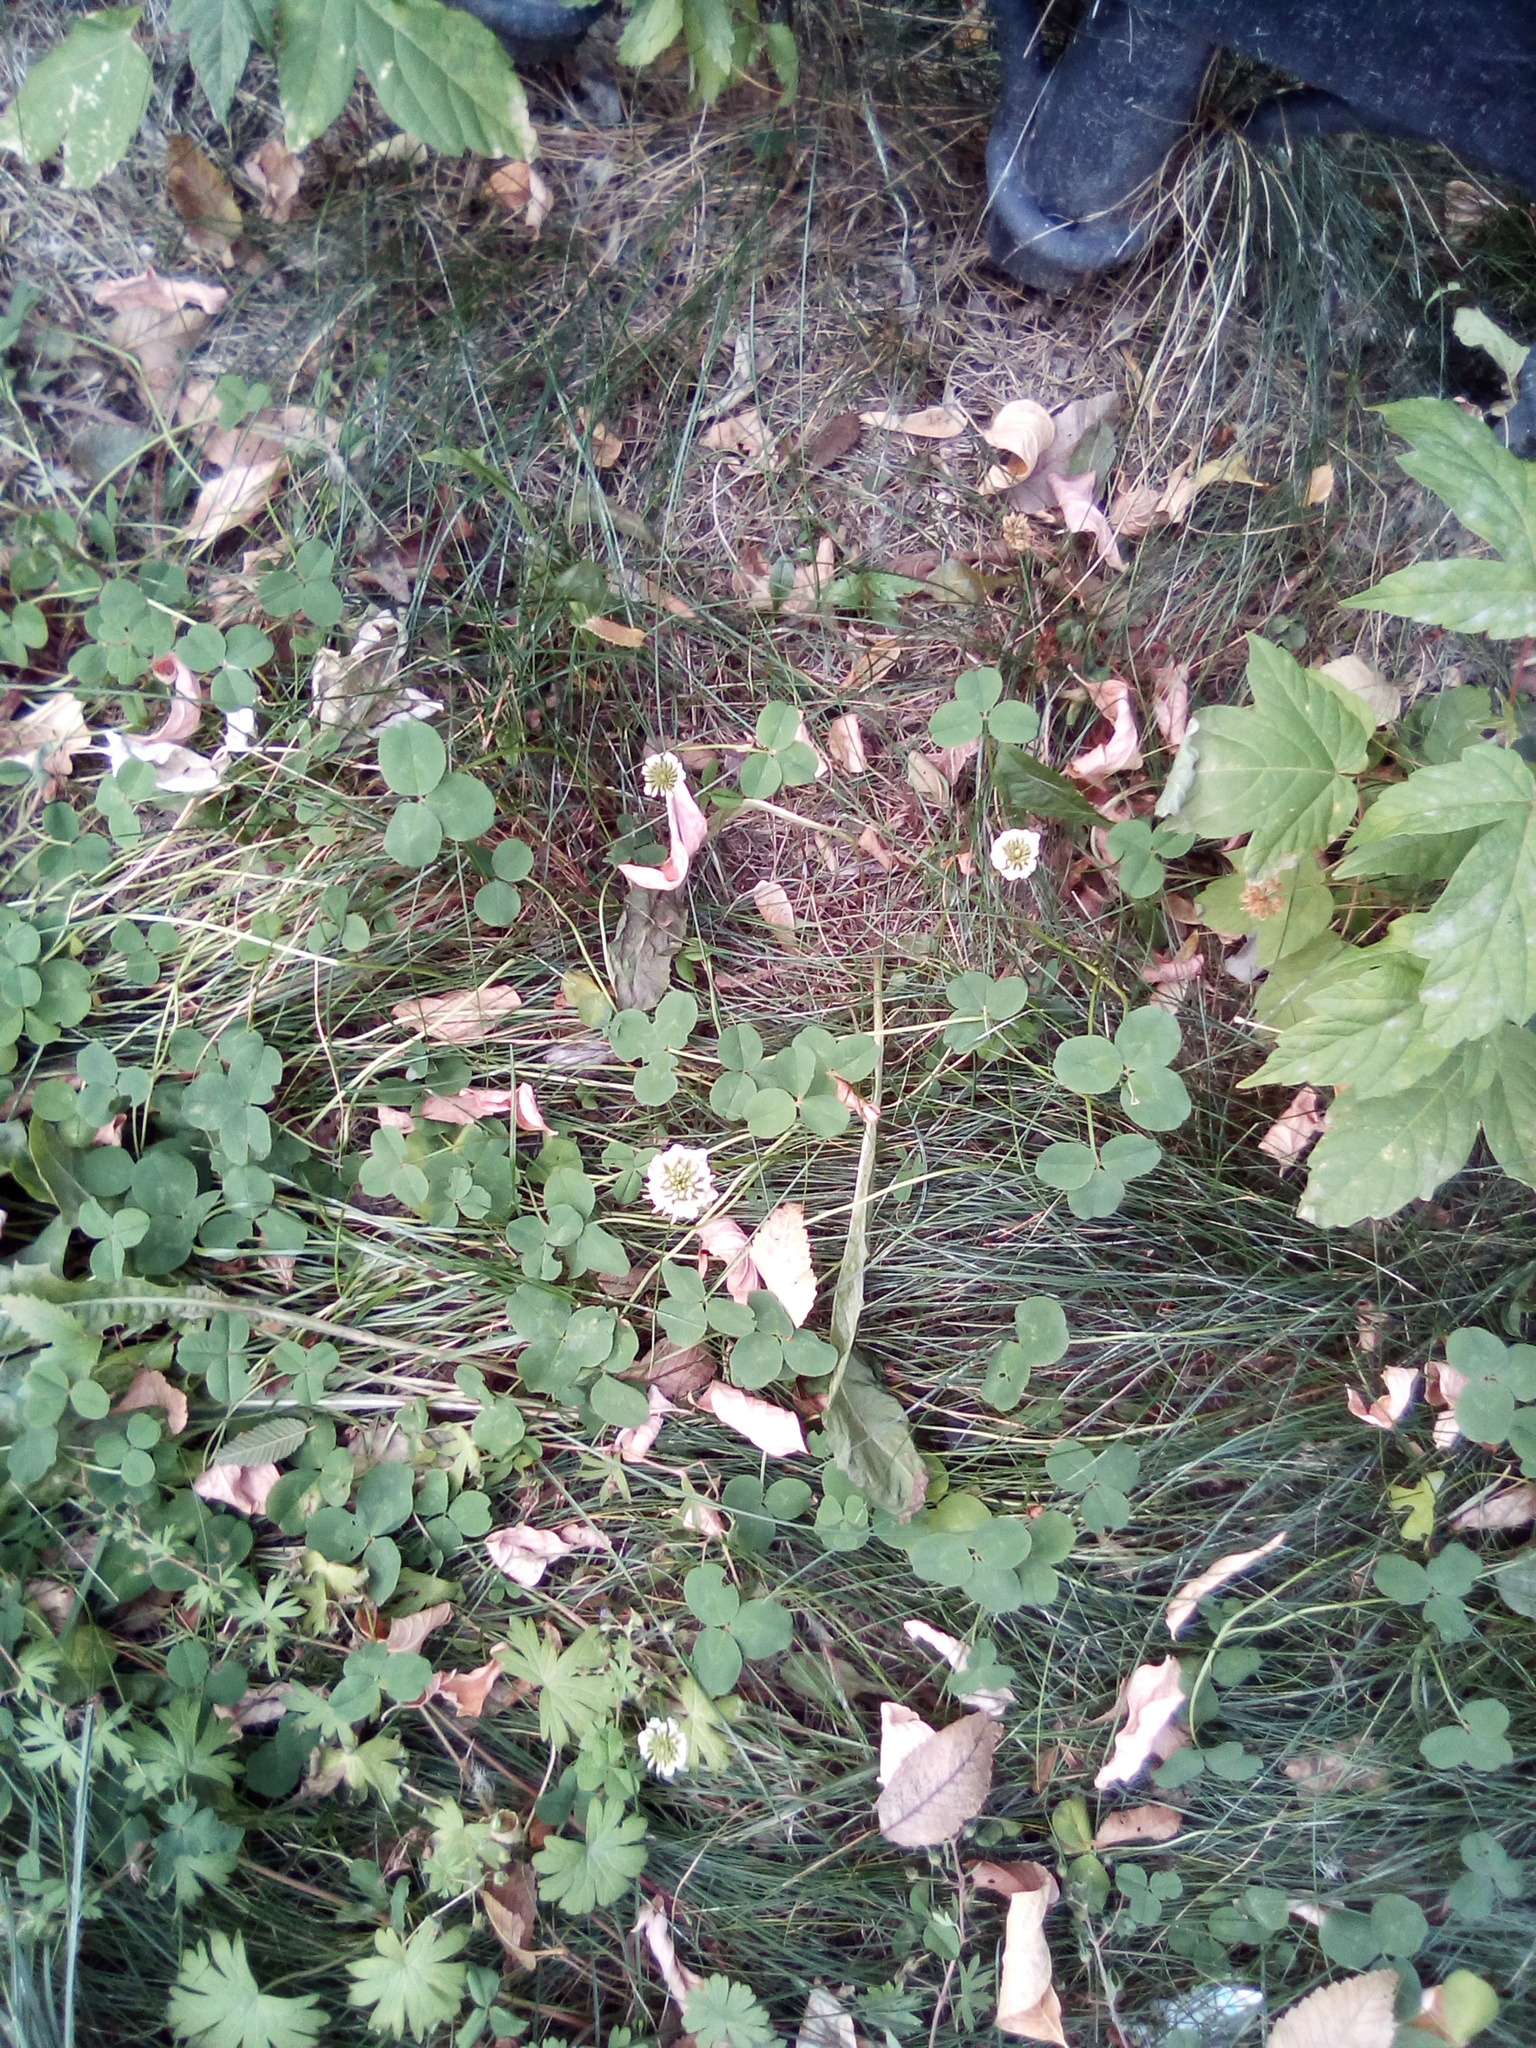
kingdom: Plantae
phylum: Tracheophyta
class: Magnoliopsida
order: Fabales
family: Fabaceae
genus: Trifolium
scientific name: Trifolium repens
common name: White clover
